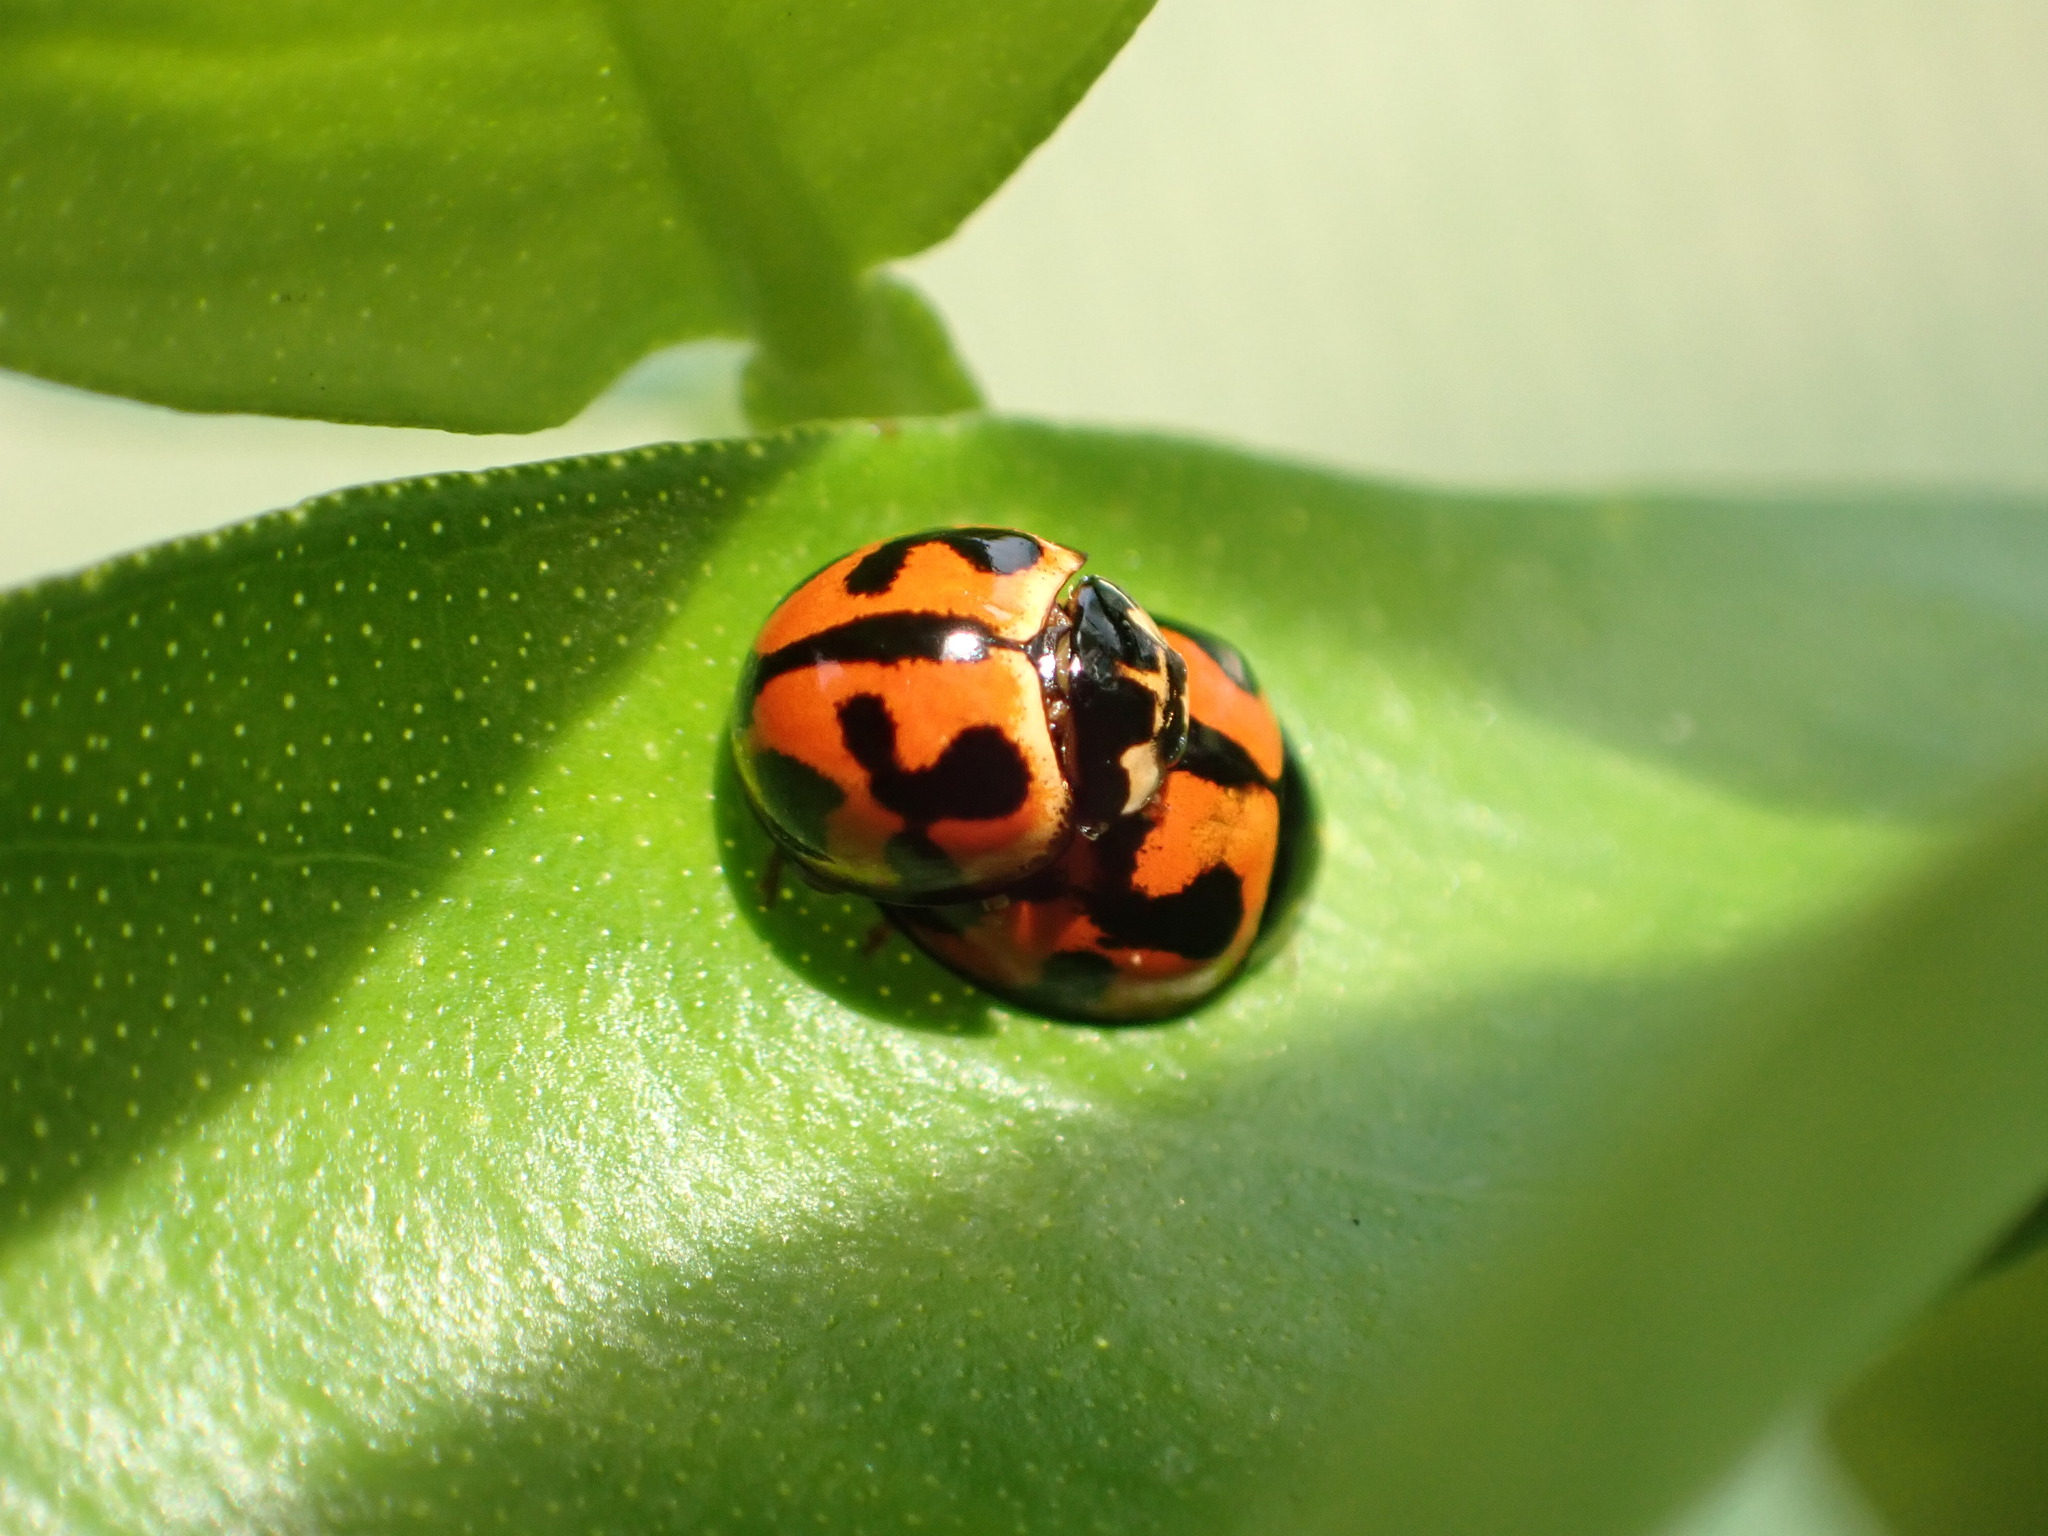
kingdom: Animalia
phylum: Arthropoda
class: Insecta
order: Coleoptera
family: Coccinellidae
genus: Coelophora
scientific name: Coelophora inaequalis
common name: Common australian lady beetle
